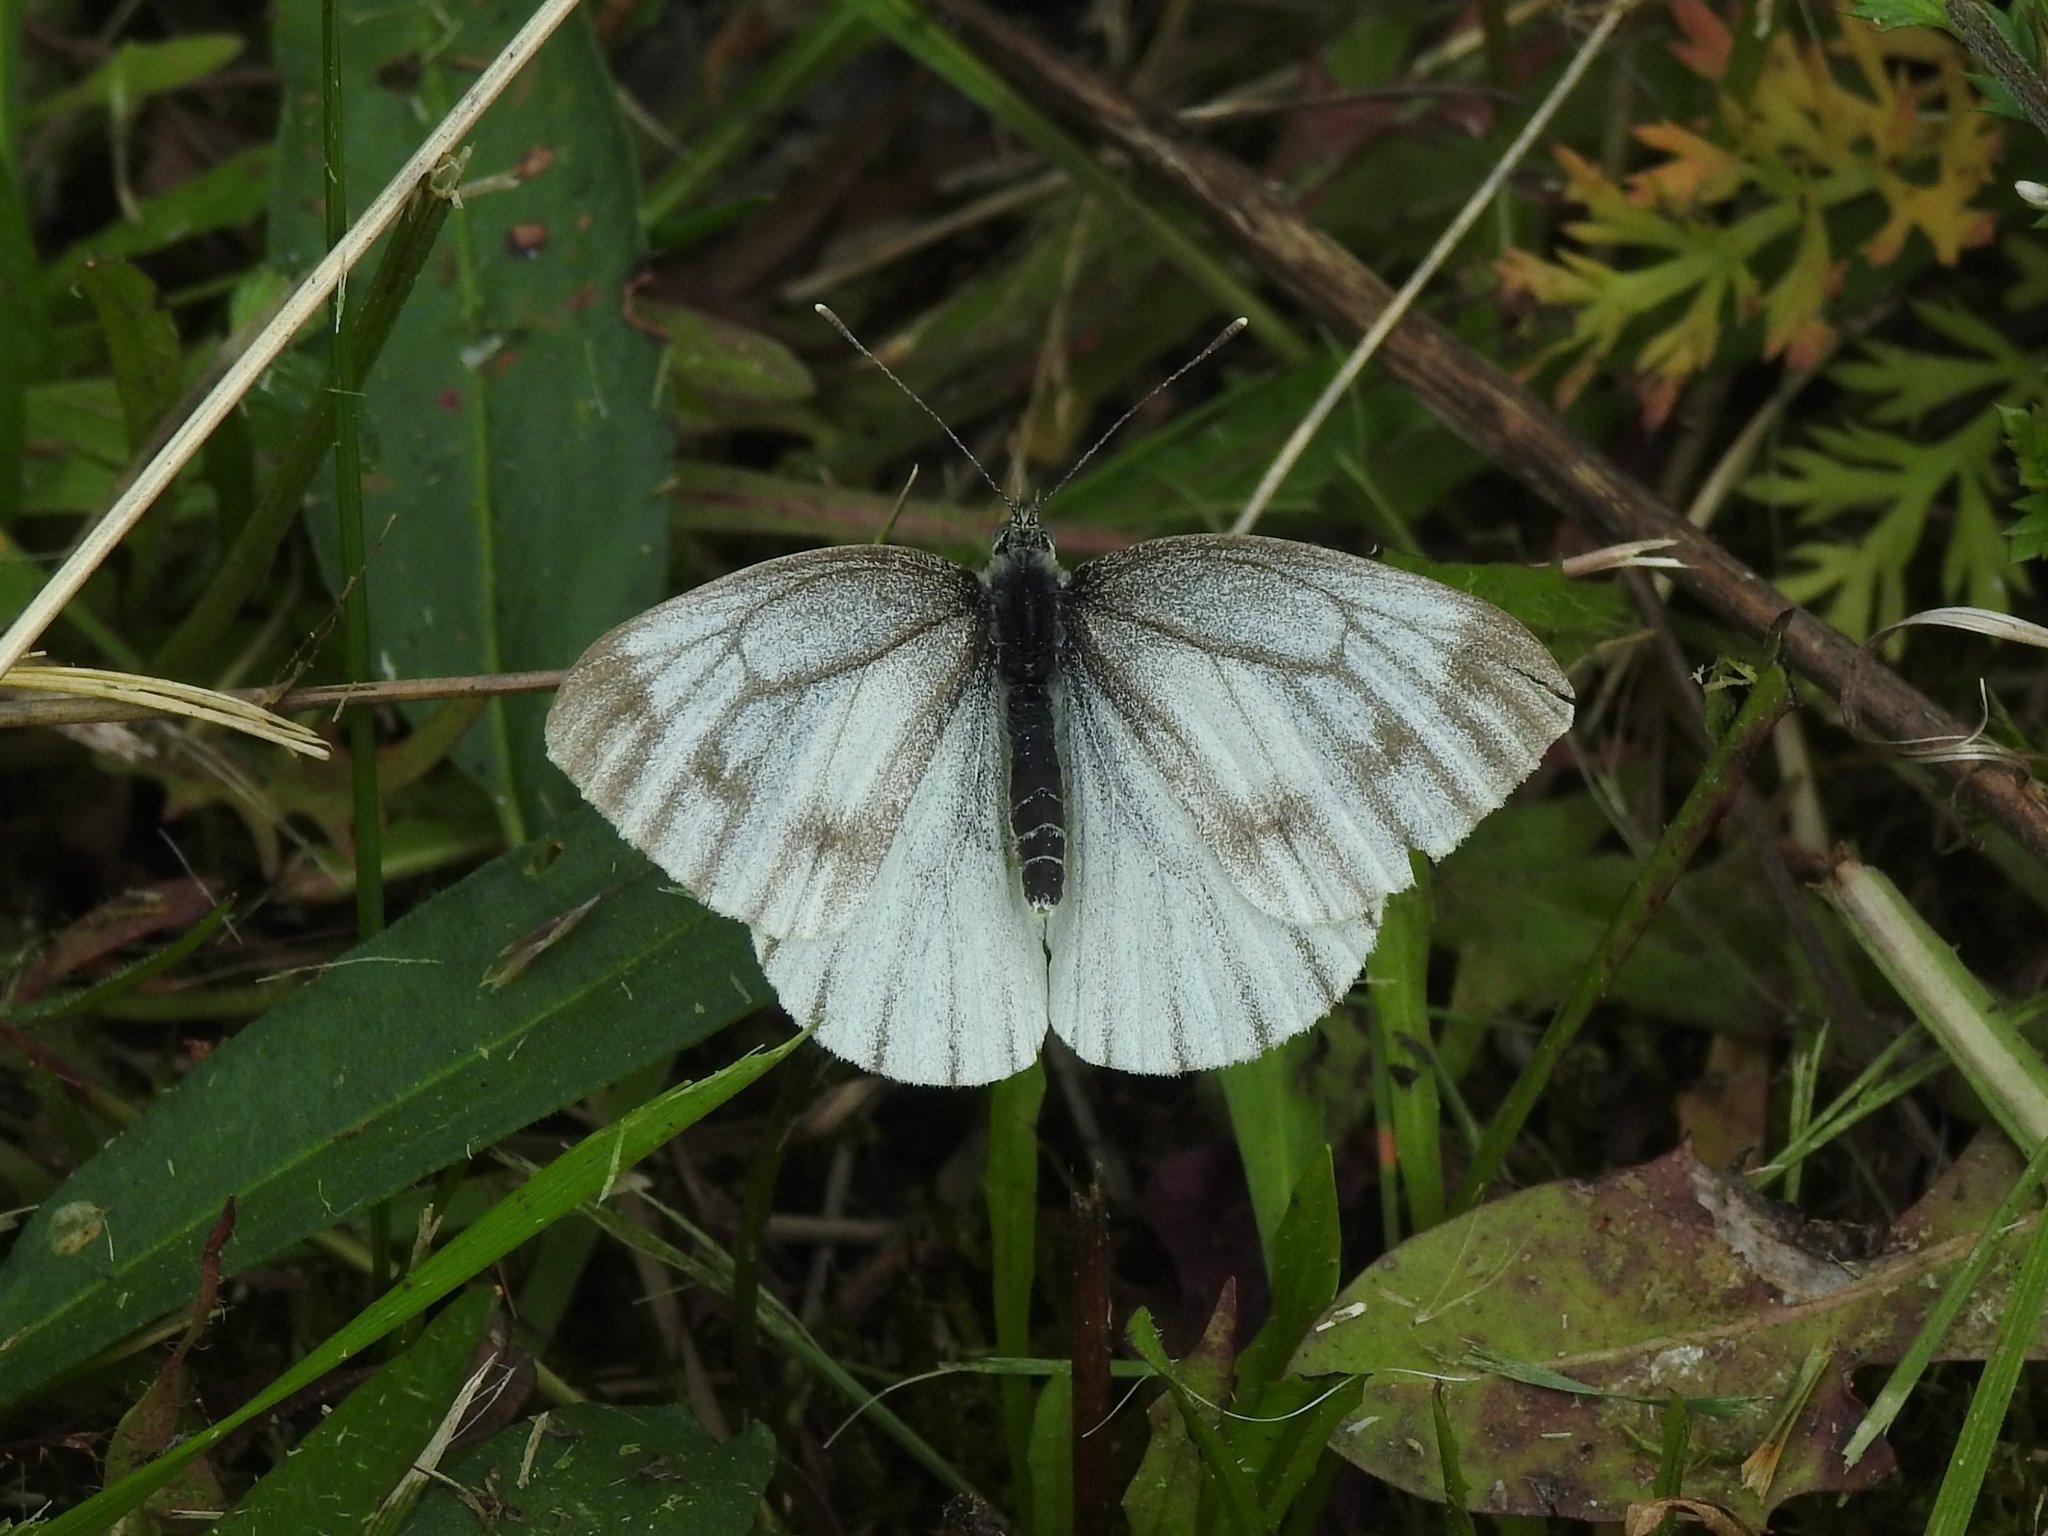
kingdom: Animalia
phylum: Arthropoda
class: Insecta
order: Lepidoptera
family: Pieridae
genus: Pieris
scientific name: Pieris napi
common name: Green-veined white
